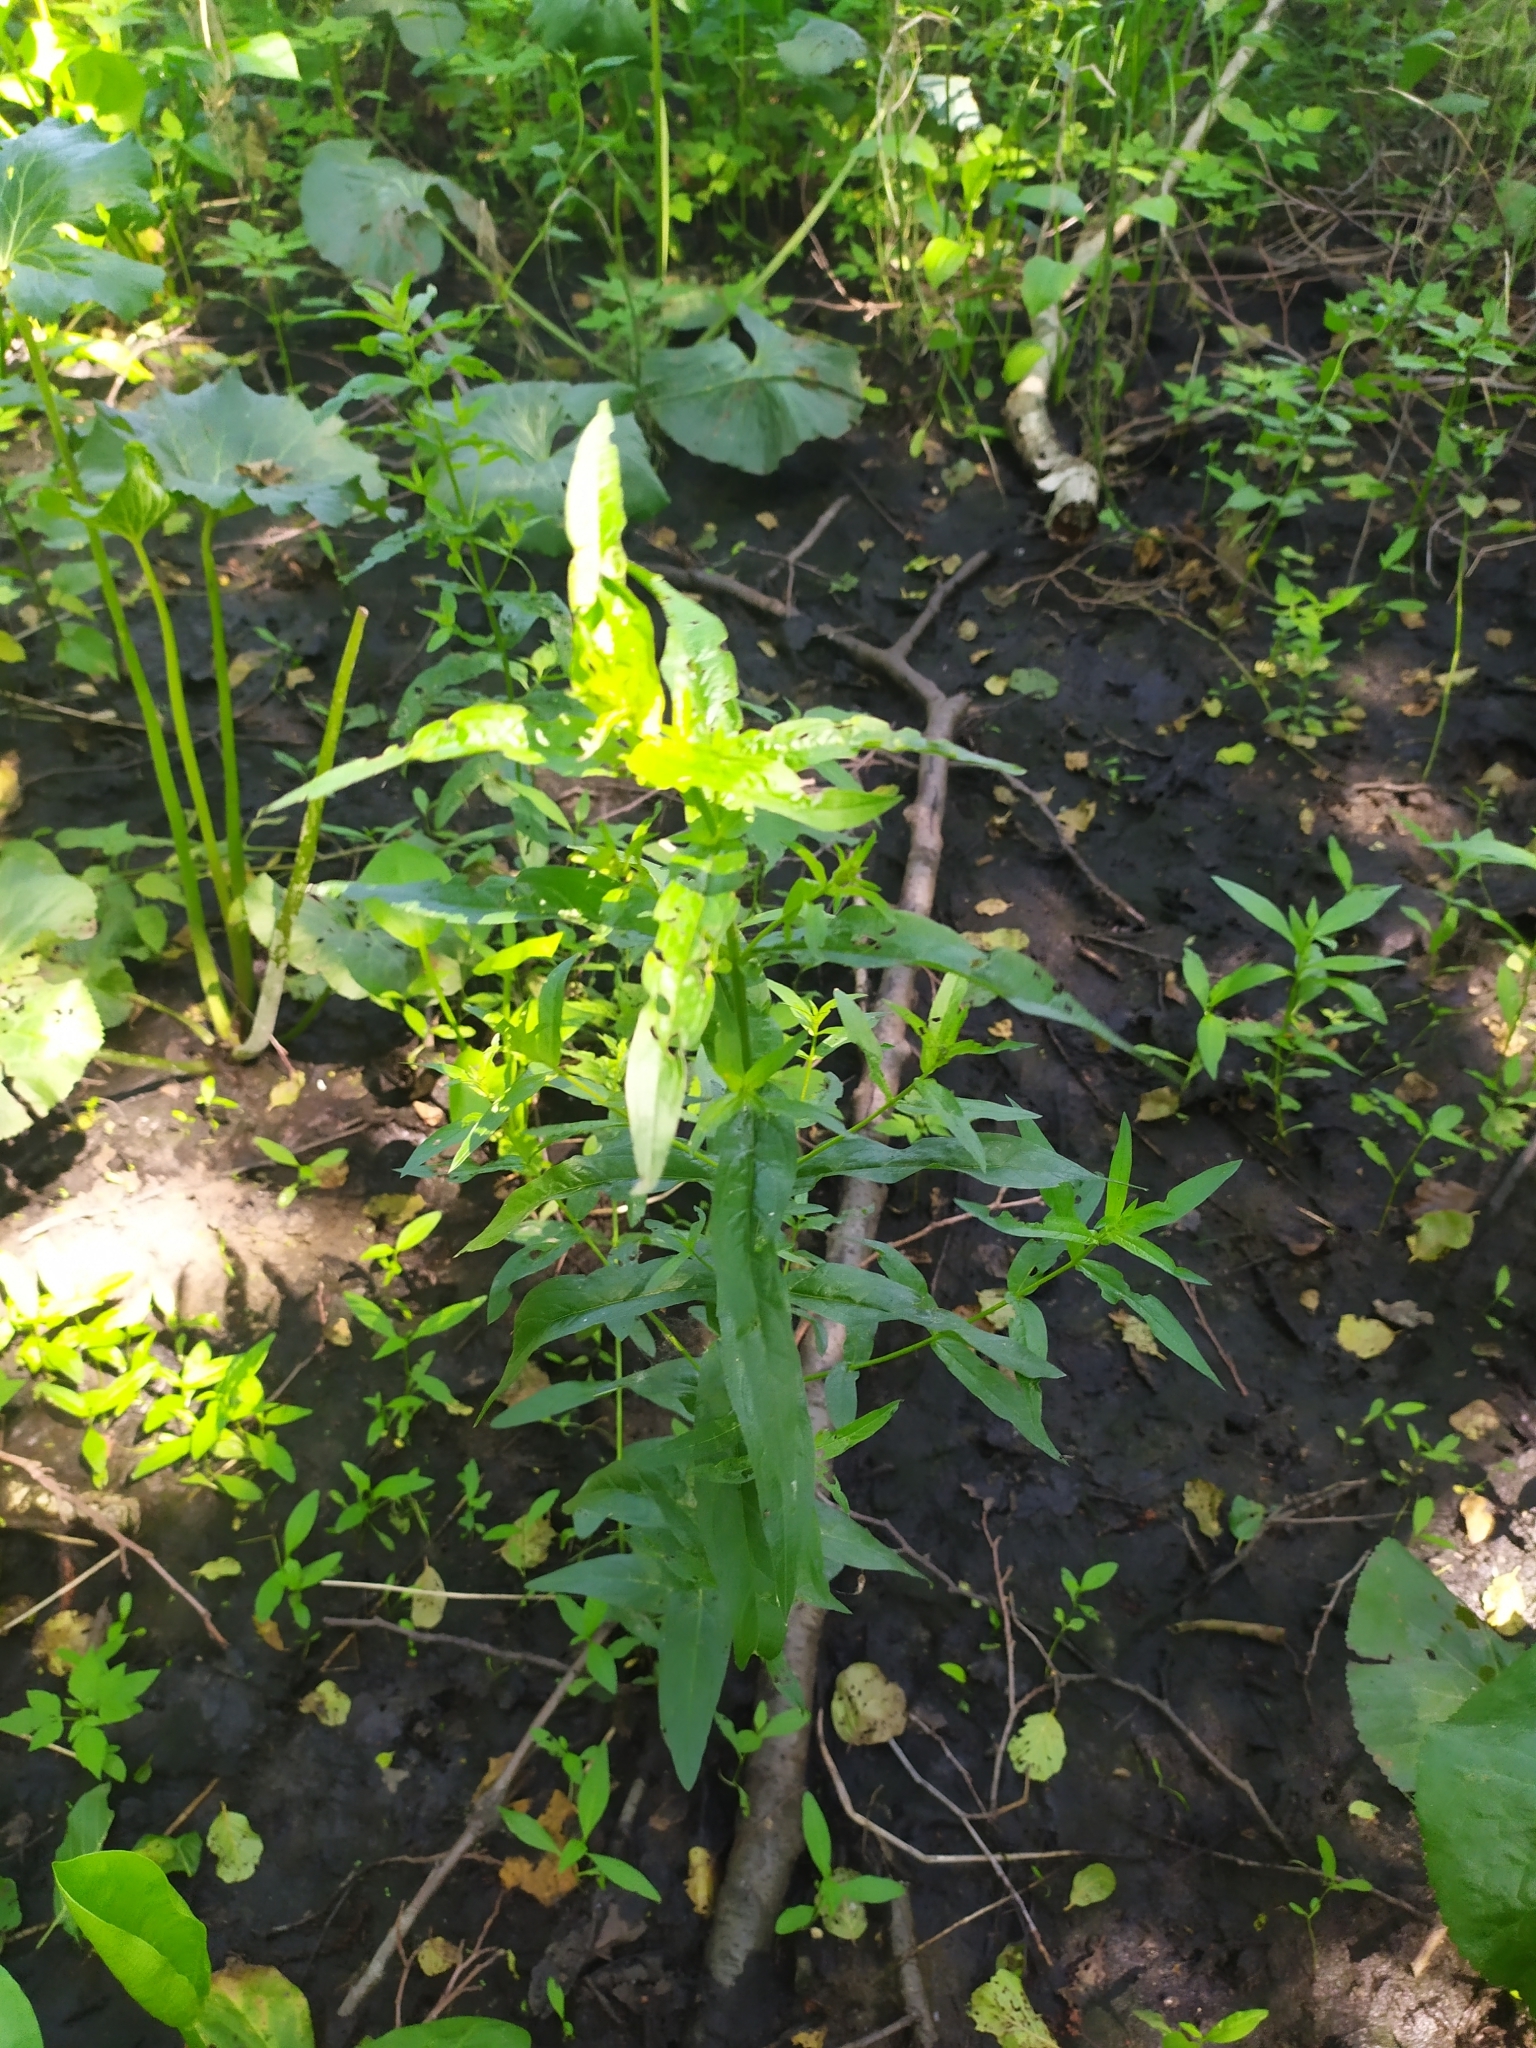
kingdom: Plantae
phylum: Tracheophyta
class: Magnoliopsida
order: Myrtales
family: Lythraceae
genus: Lythrum
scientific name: Lythrum salicaria
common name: Purple loosestrife
